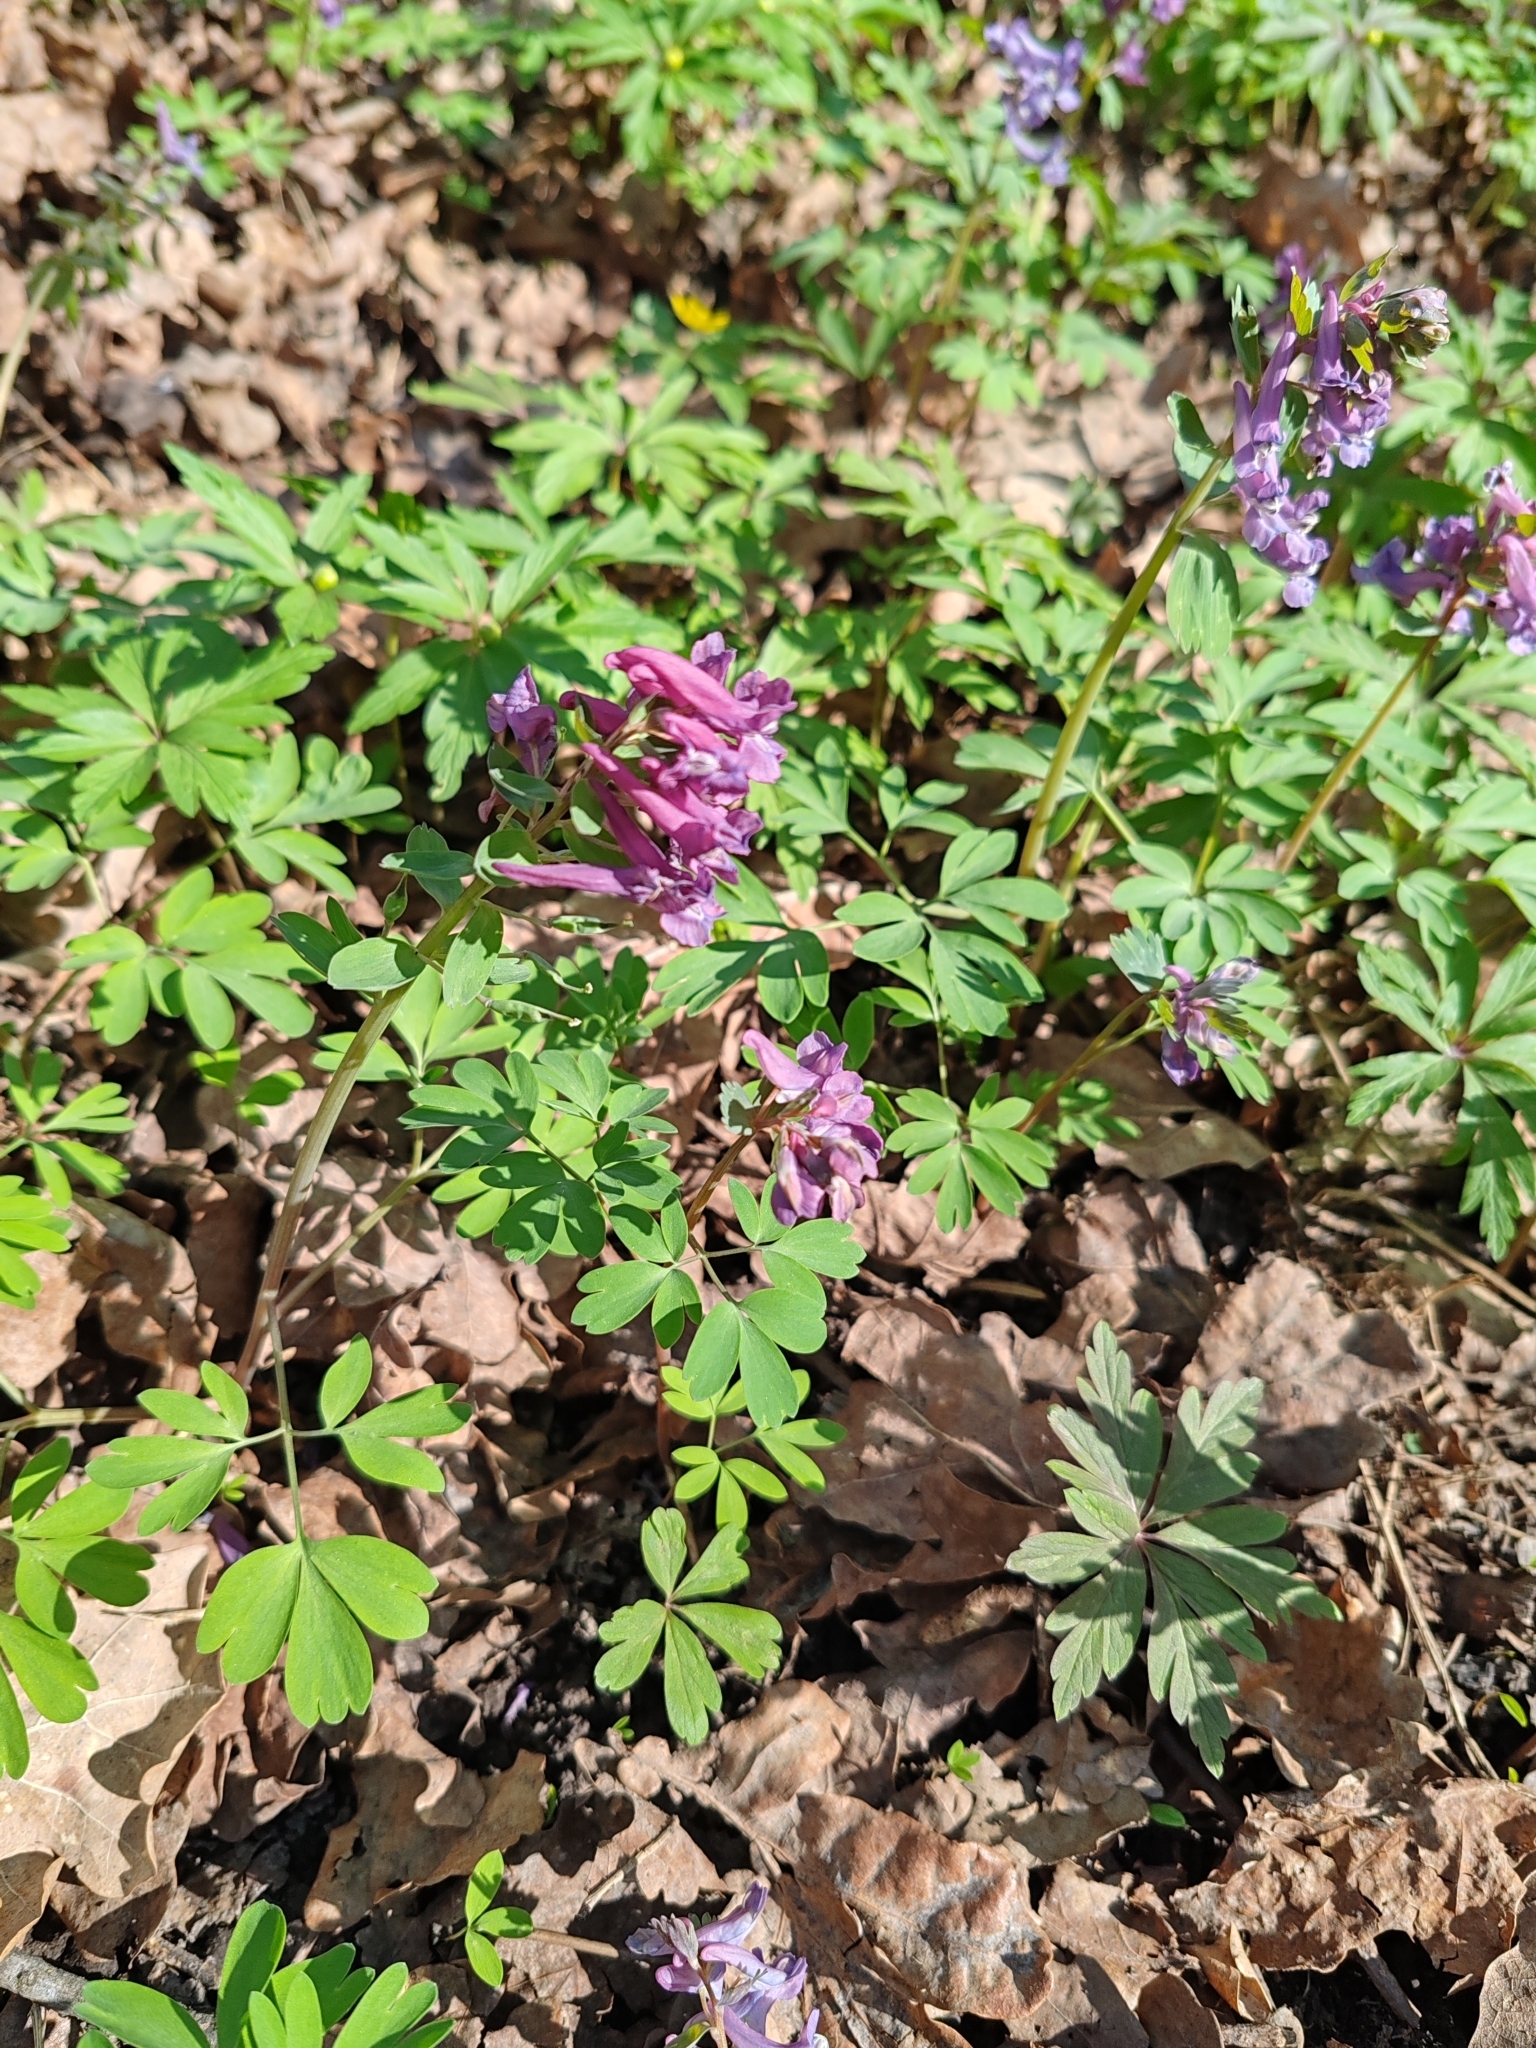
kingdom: Plantae
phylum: Tracheophyta
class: Magnoliopsida
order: Ranunculales
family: Papaveraceae
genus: Corydalis
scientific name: Corydalis solida
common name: Bird-in-a-bush
